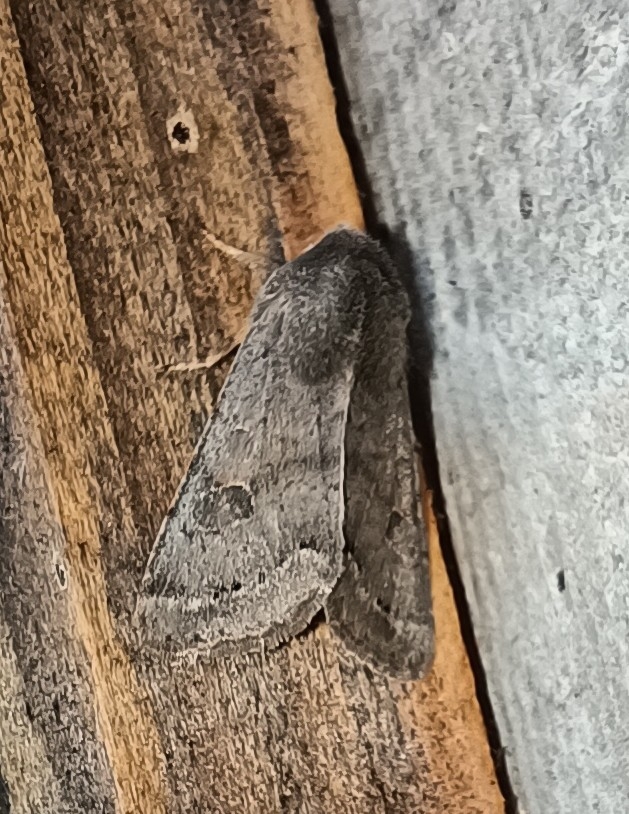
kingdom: Animalia
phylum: Arthropoda
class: Insecta
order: Lepidoptera
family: Noctuidae
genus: Orthosia
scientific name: Orthosia populeti
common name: Lead-coloured drab
